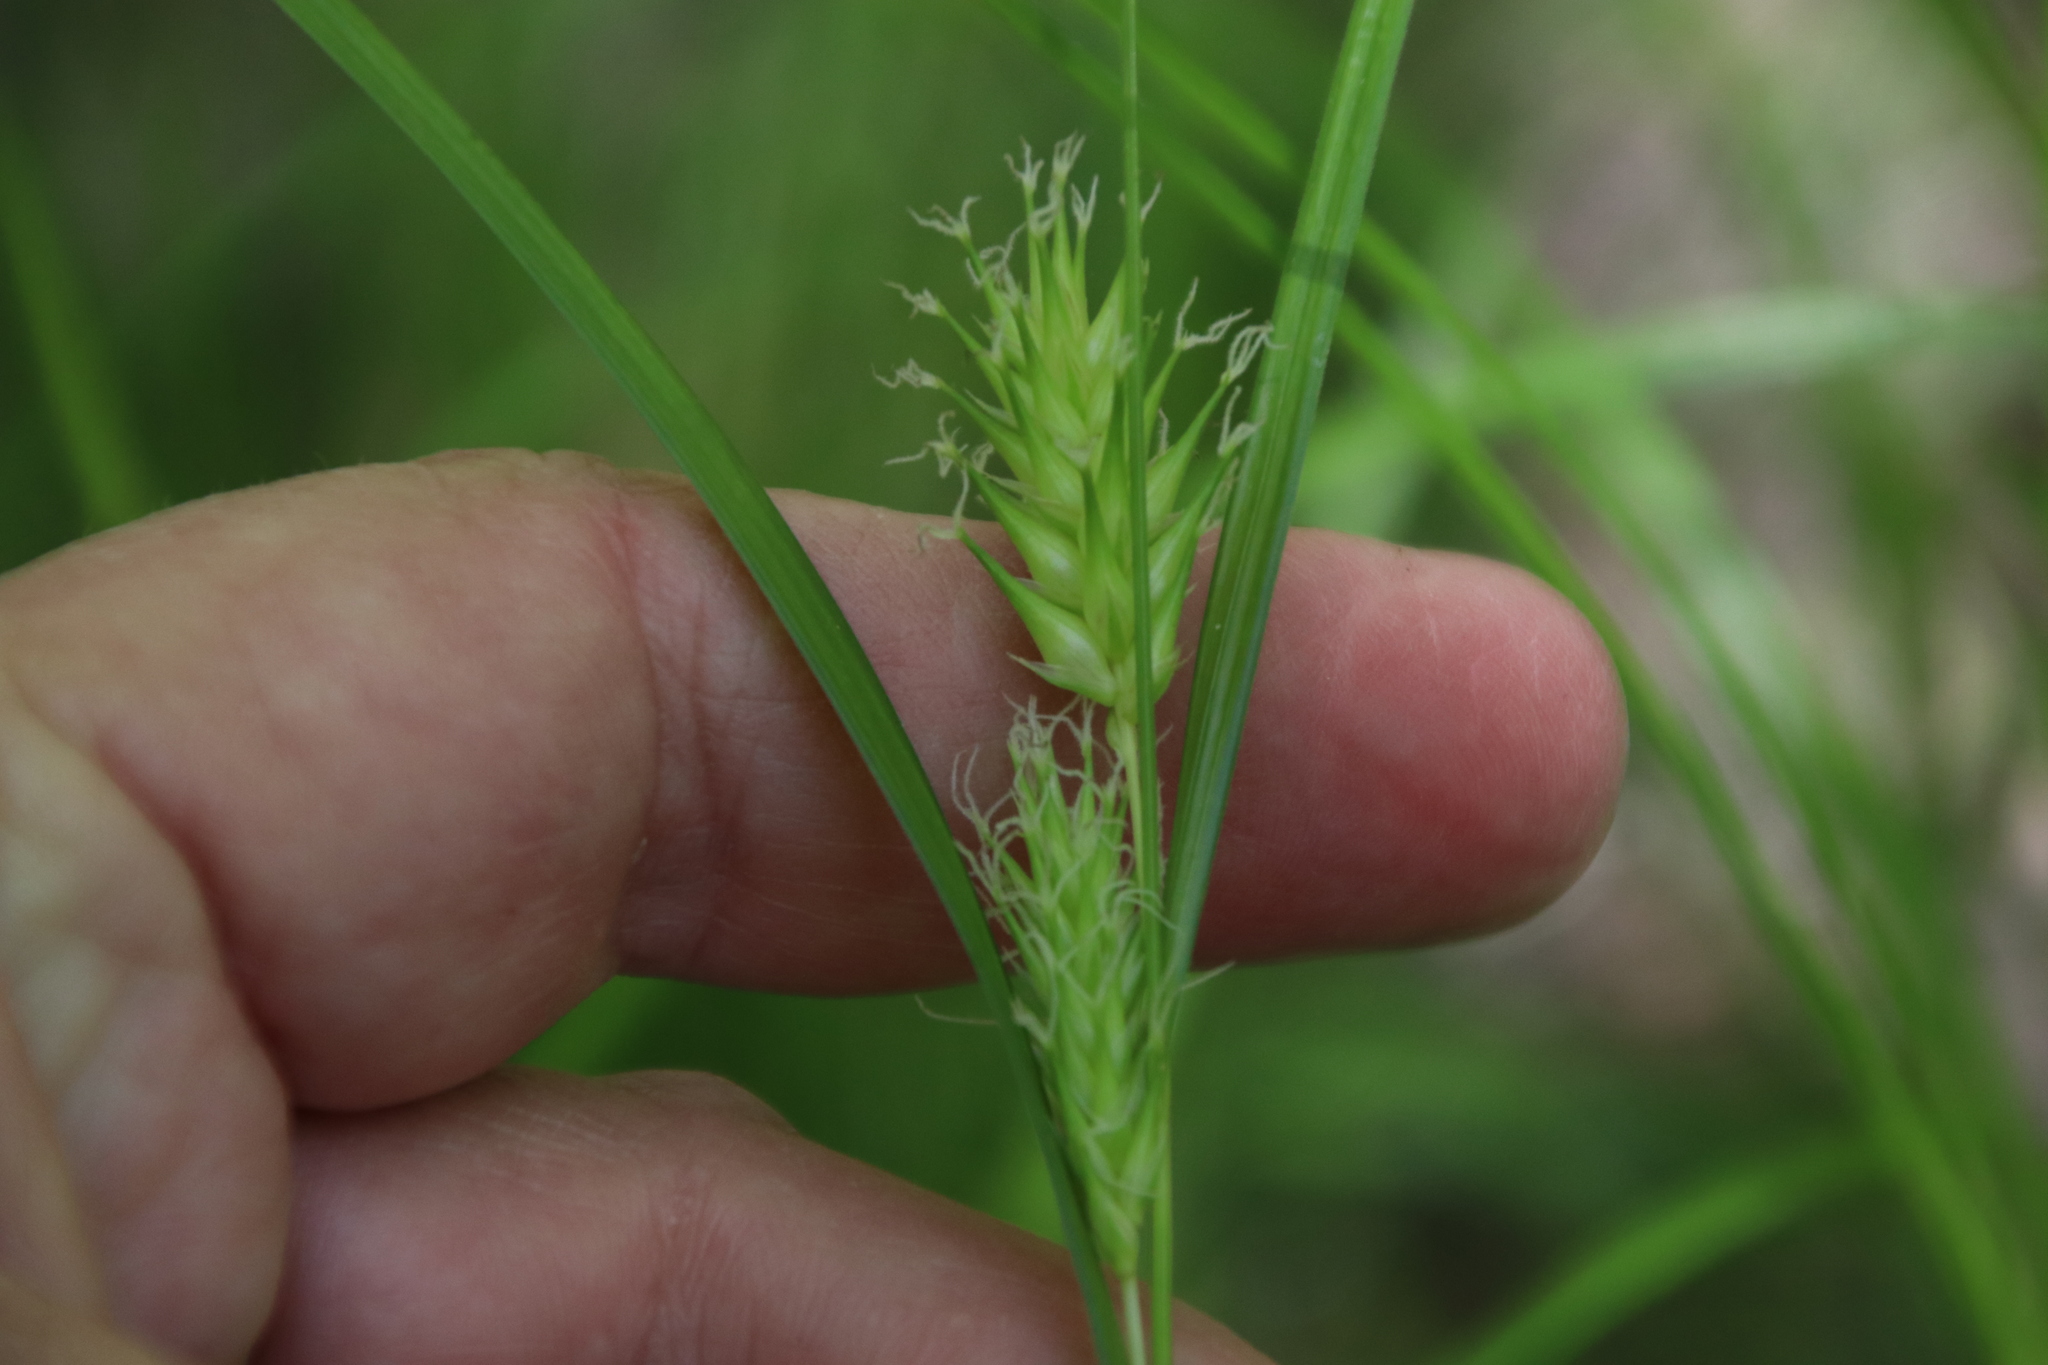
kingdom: Plantae
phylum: Tracheophyta
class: Liliopsida
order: Poales
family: Cyperaceae
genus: Carex
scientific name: Carex lupulina
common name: Hop sedge
